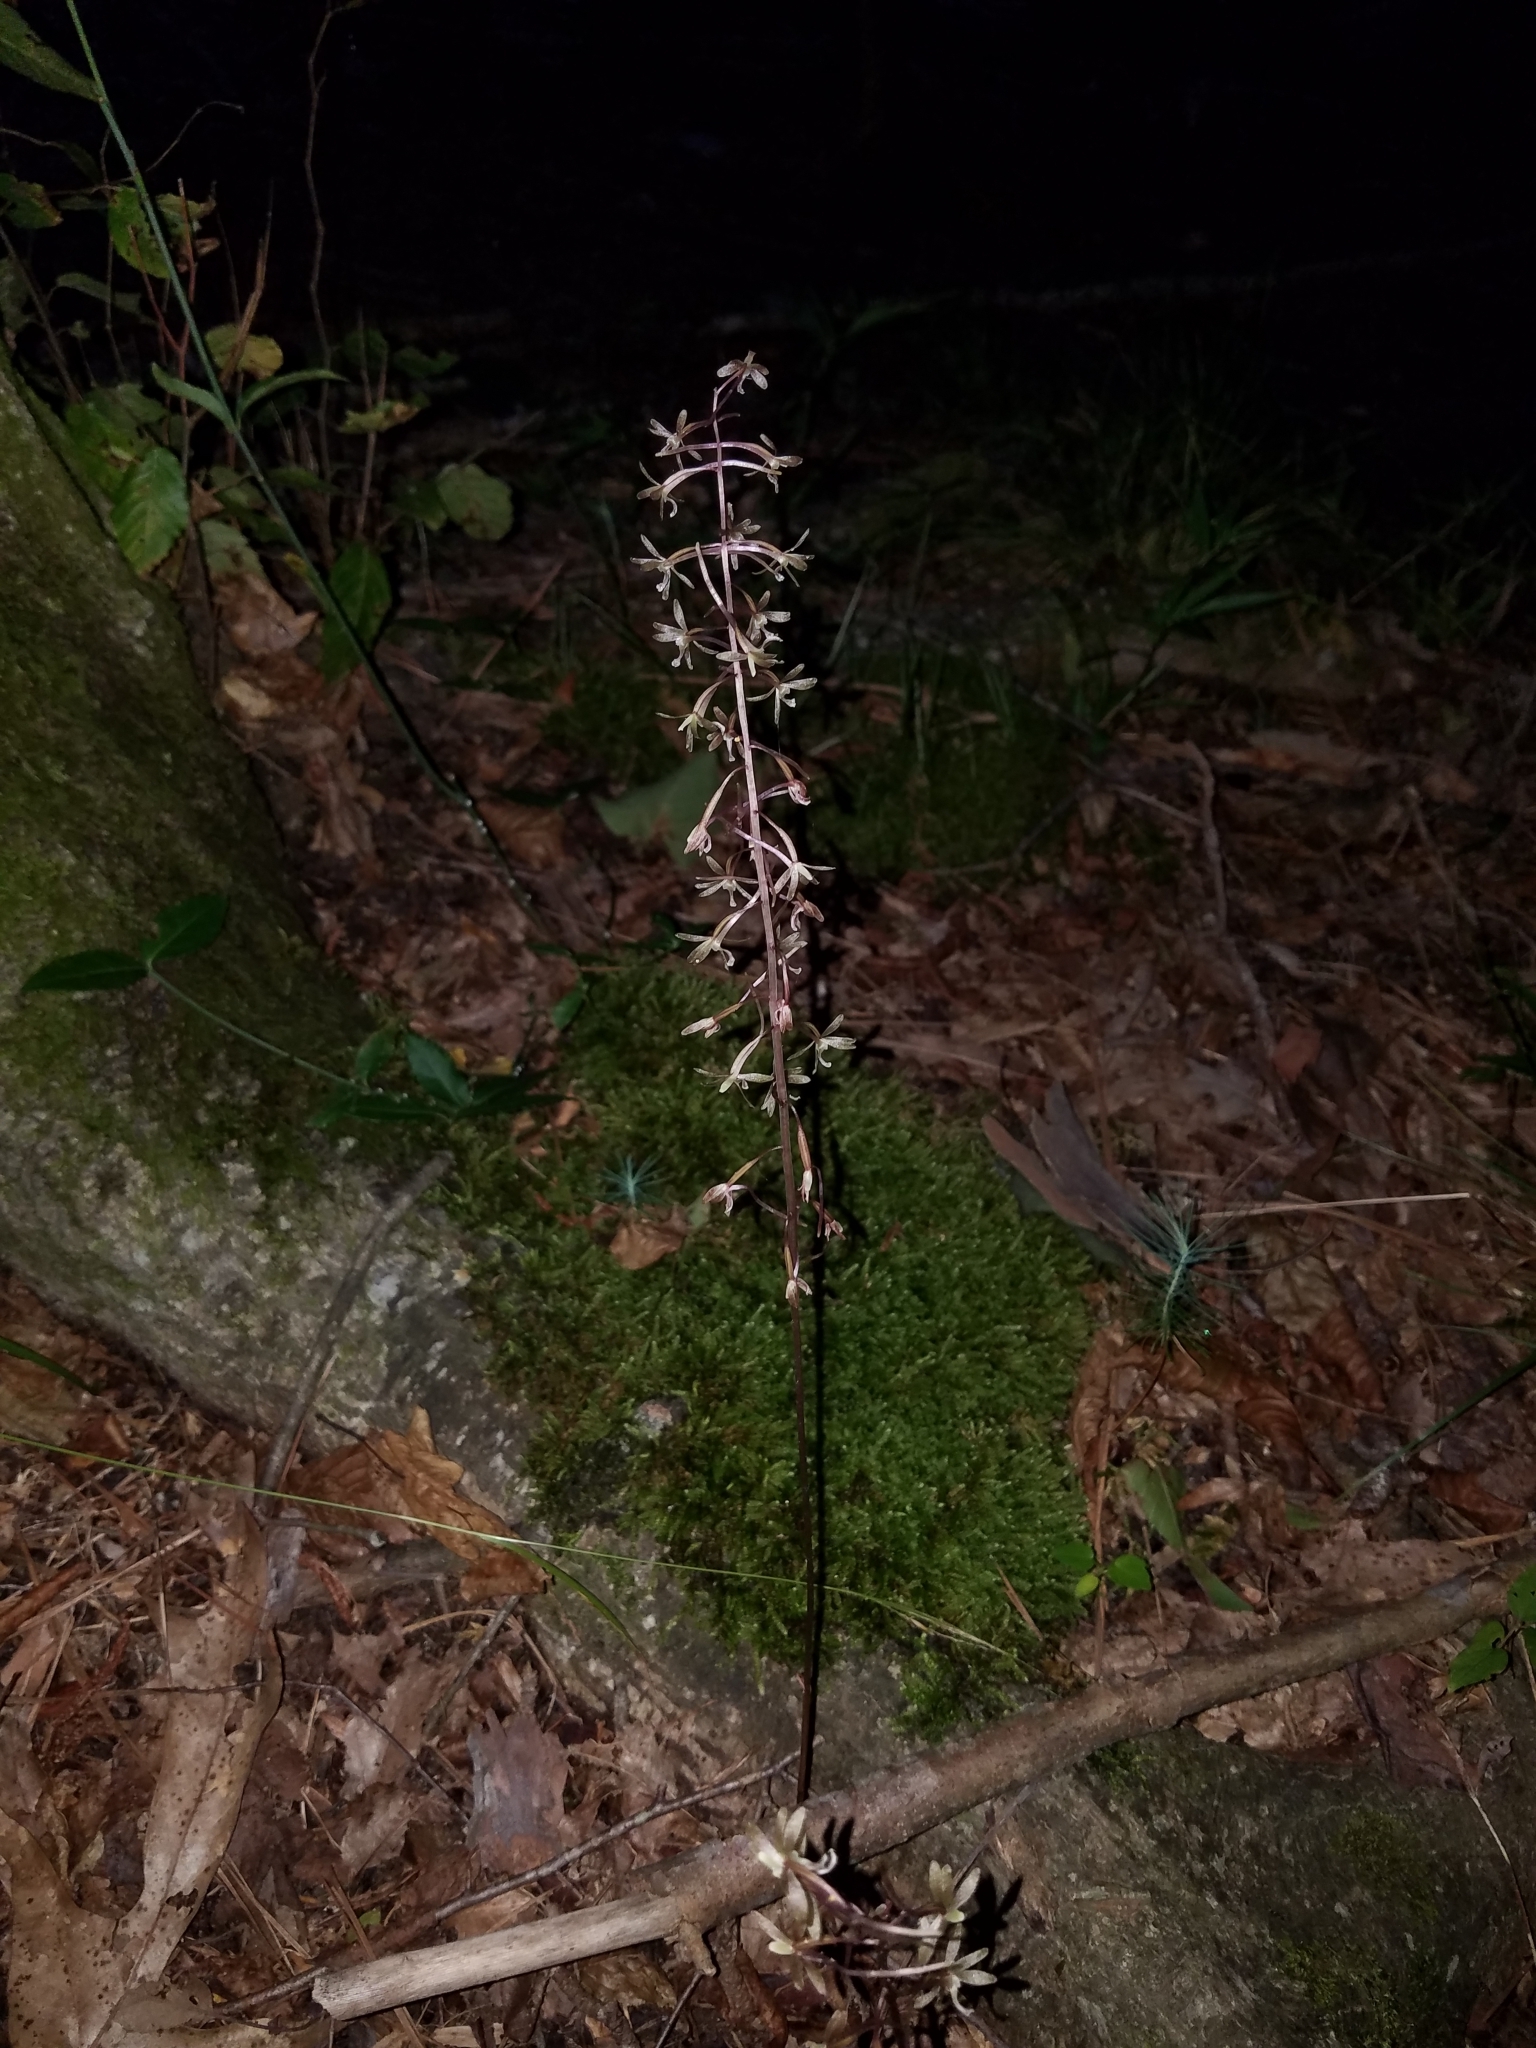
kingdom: Plantae
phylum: Tracheophyta
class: Liliopsida
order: Asparagales
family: Orchidaceae
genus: Tipularia
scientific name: Tipularia discolor
